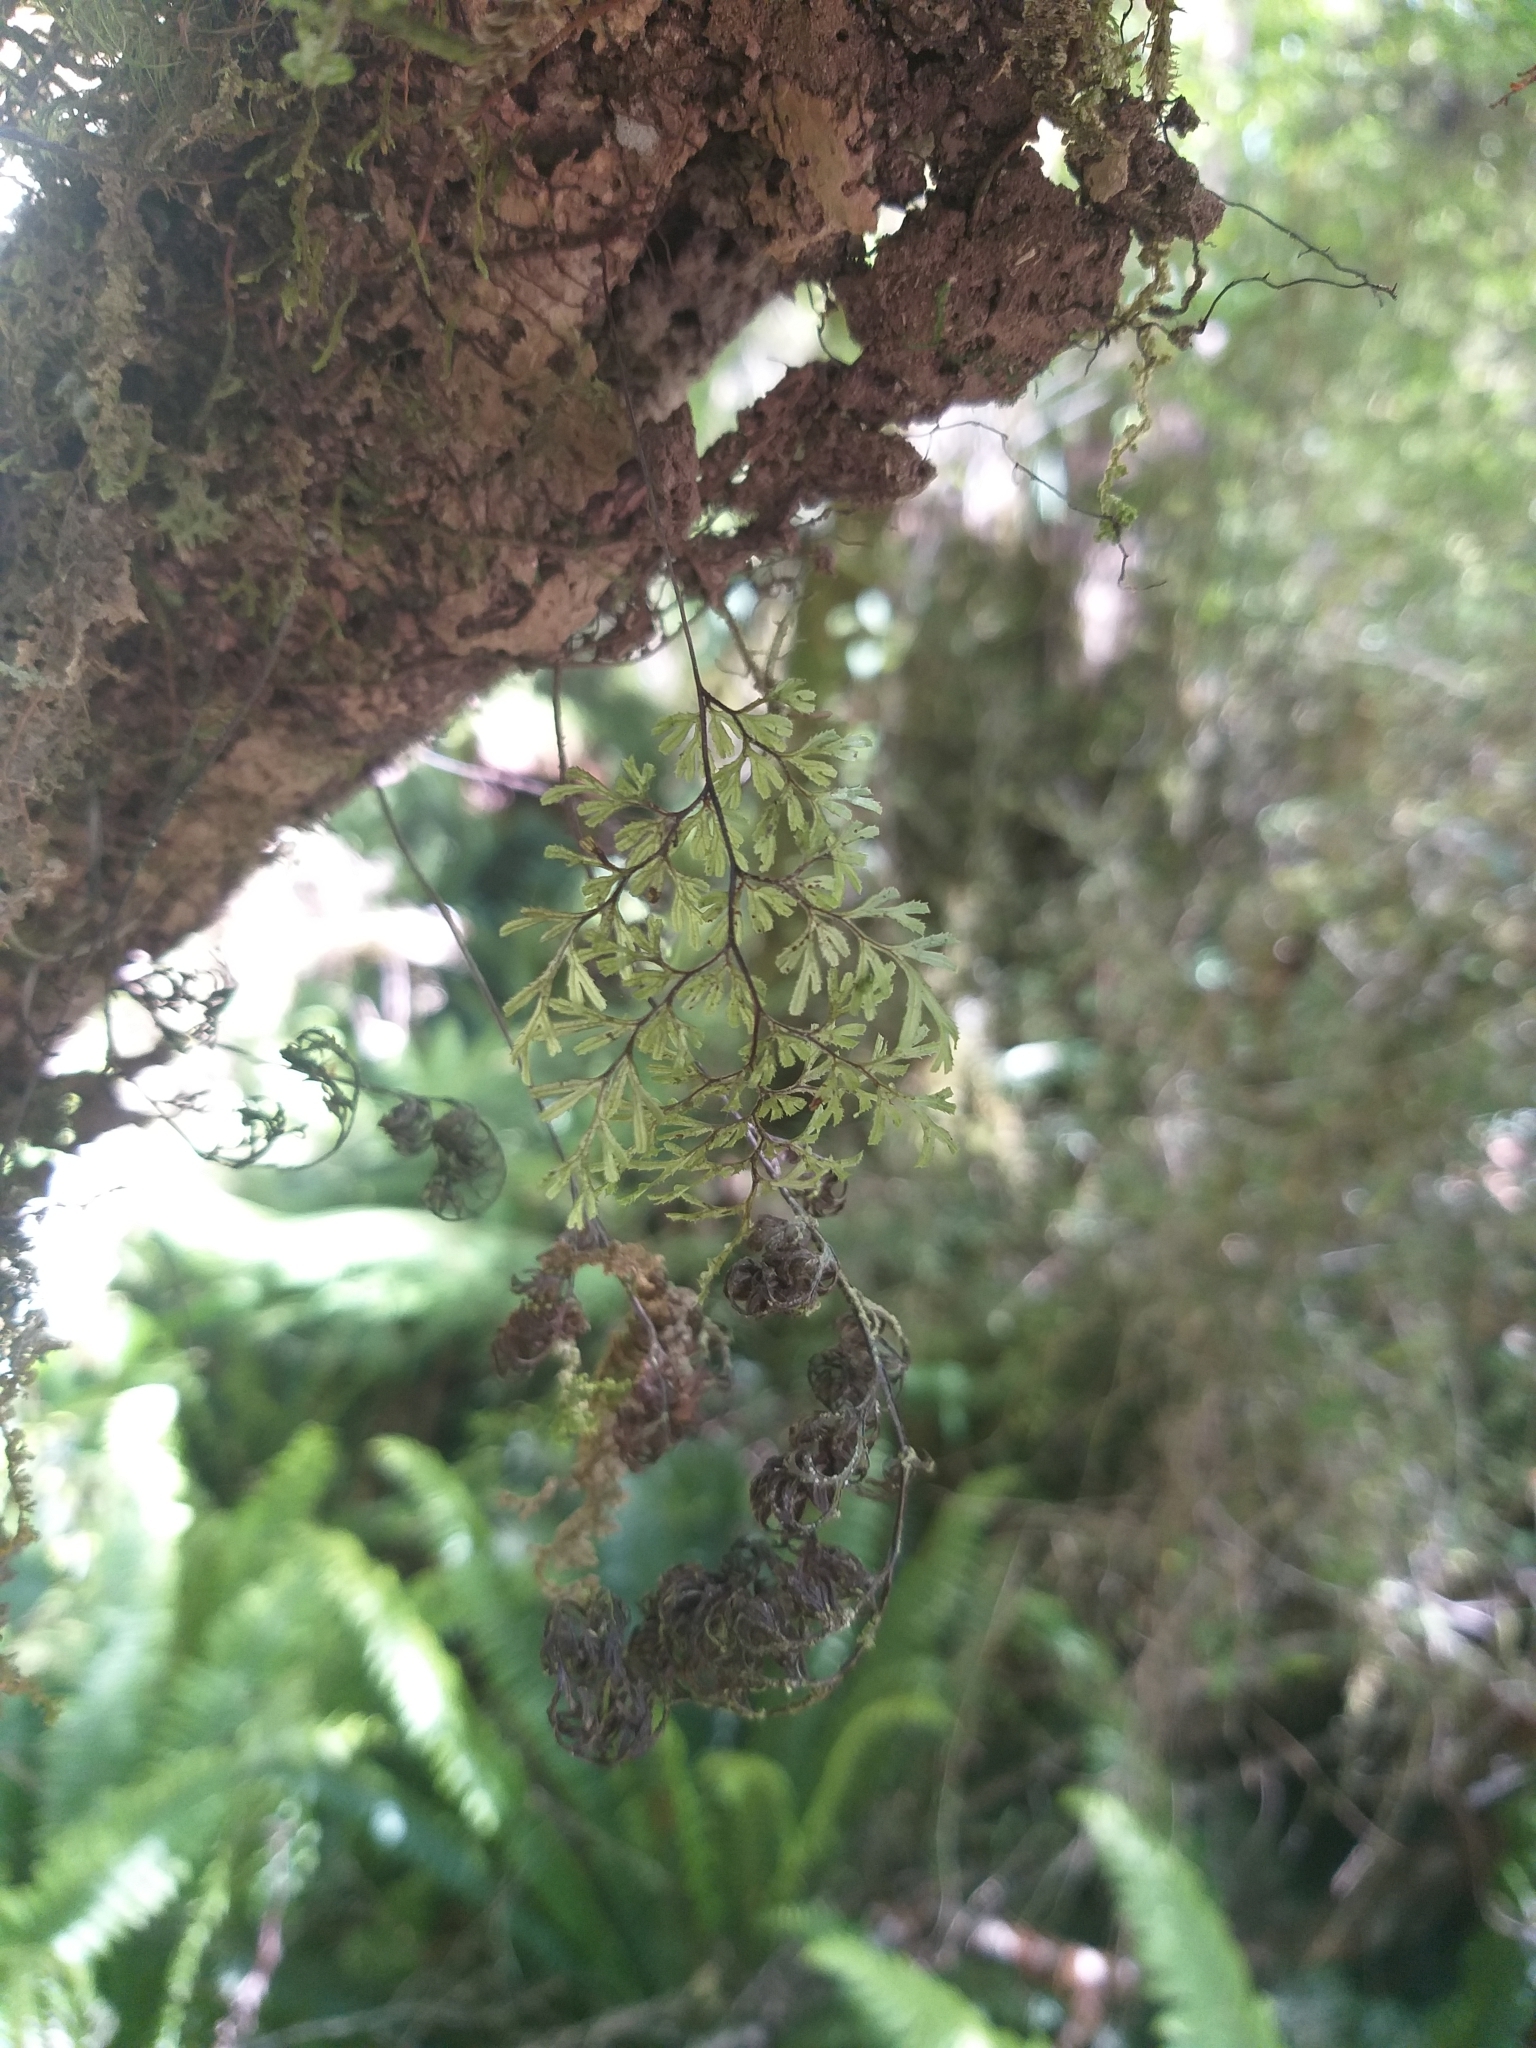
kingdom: Plantae
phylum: Tracheophyta
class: Polypodiopsida
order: Hymenophyllales
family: Hymenophyllaceae
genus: Hymenophyllum
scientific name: Hymenophyllum
